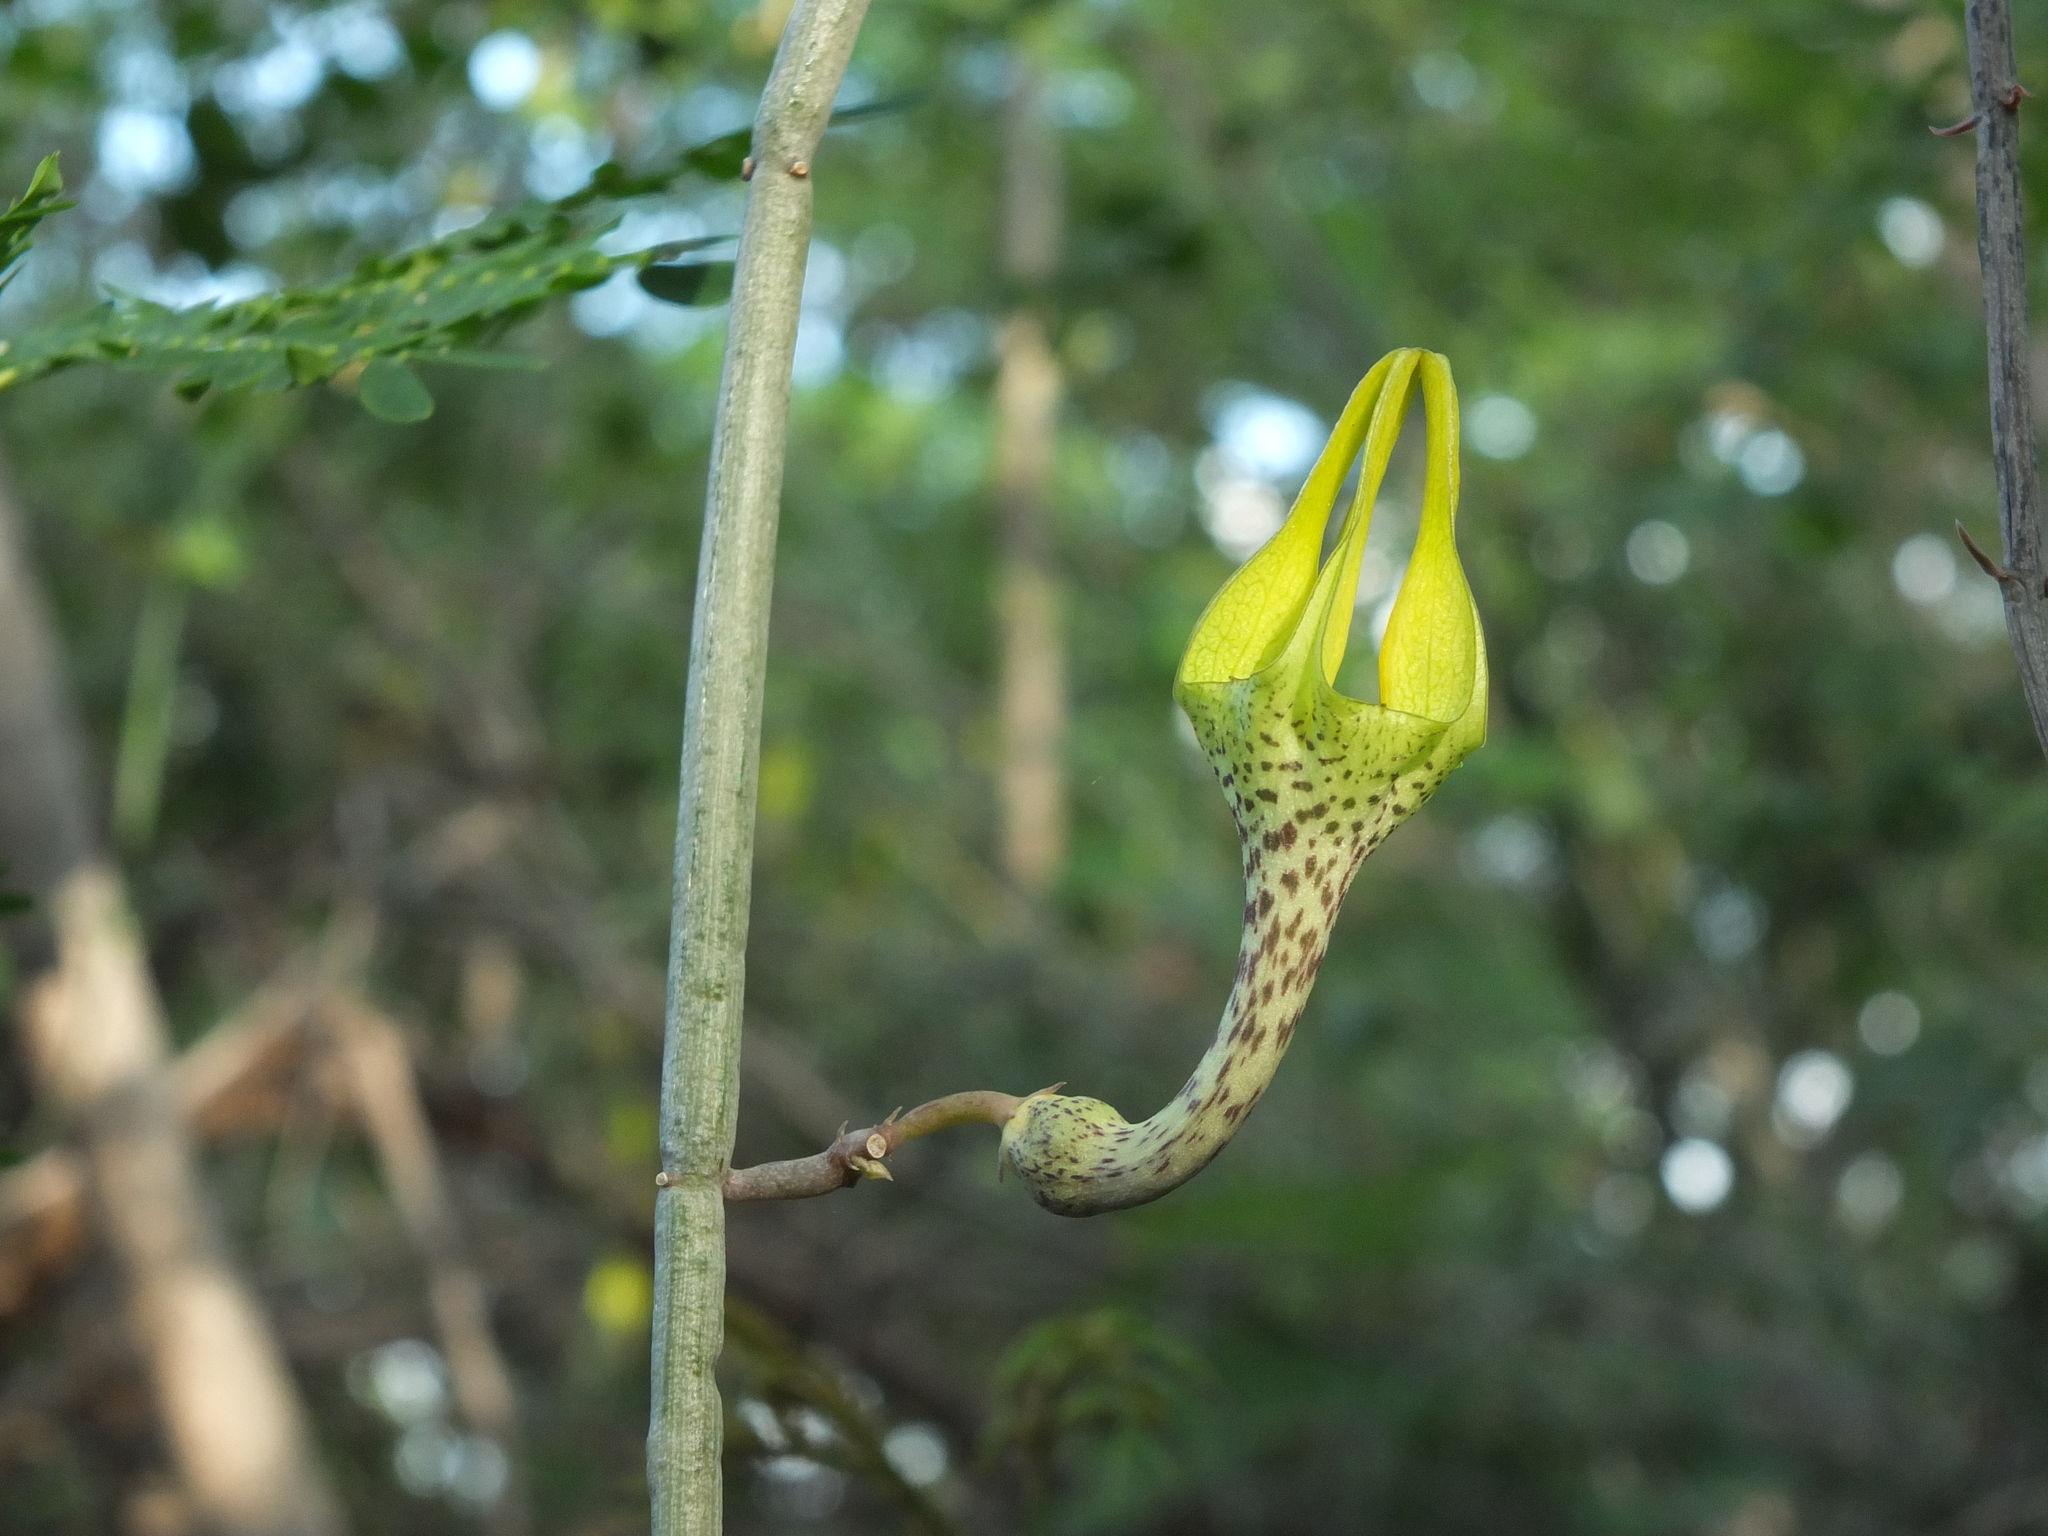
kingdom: Plantae
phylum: Tracheophyta
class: Magnoliopsida
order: Gentianales
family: Apocynaceae
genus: Ceropegia
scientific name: Ceropegia juncea
